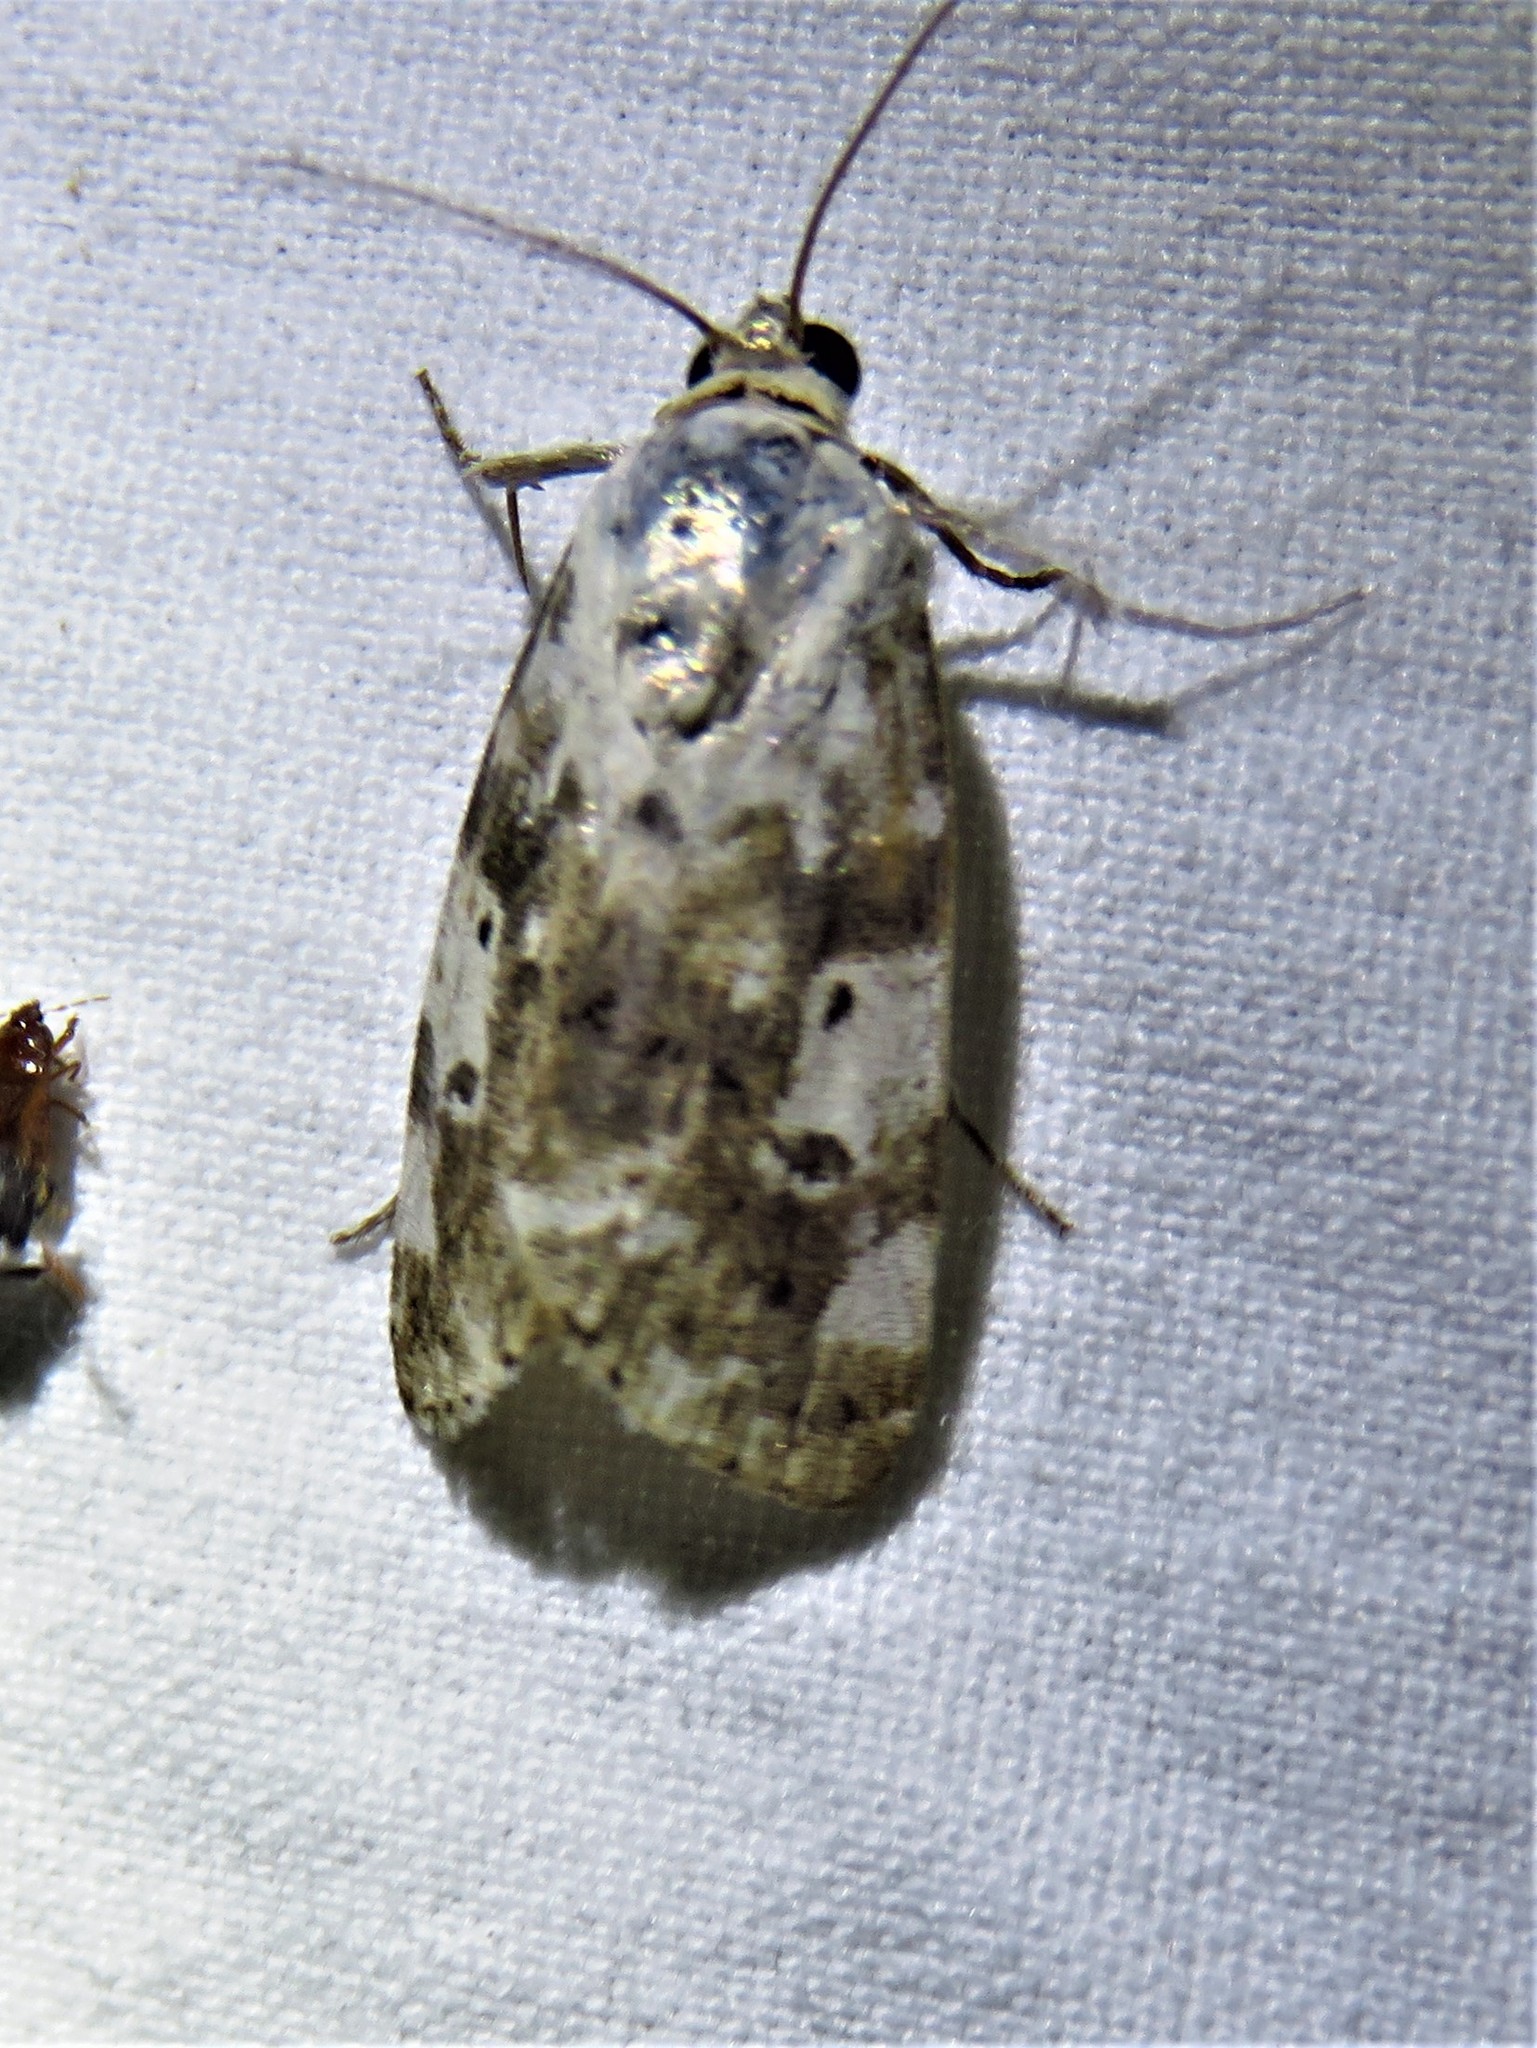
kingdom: Animalia
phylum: Arthropoda
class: Insecta
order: Lepidoptera
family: Noctuidae
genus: Acontia
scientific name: Acontia aprica
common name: Nun
